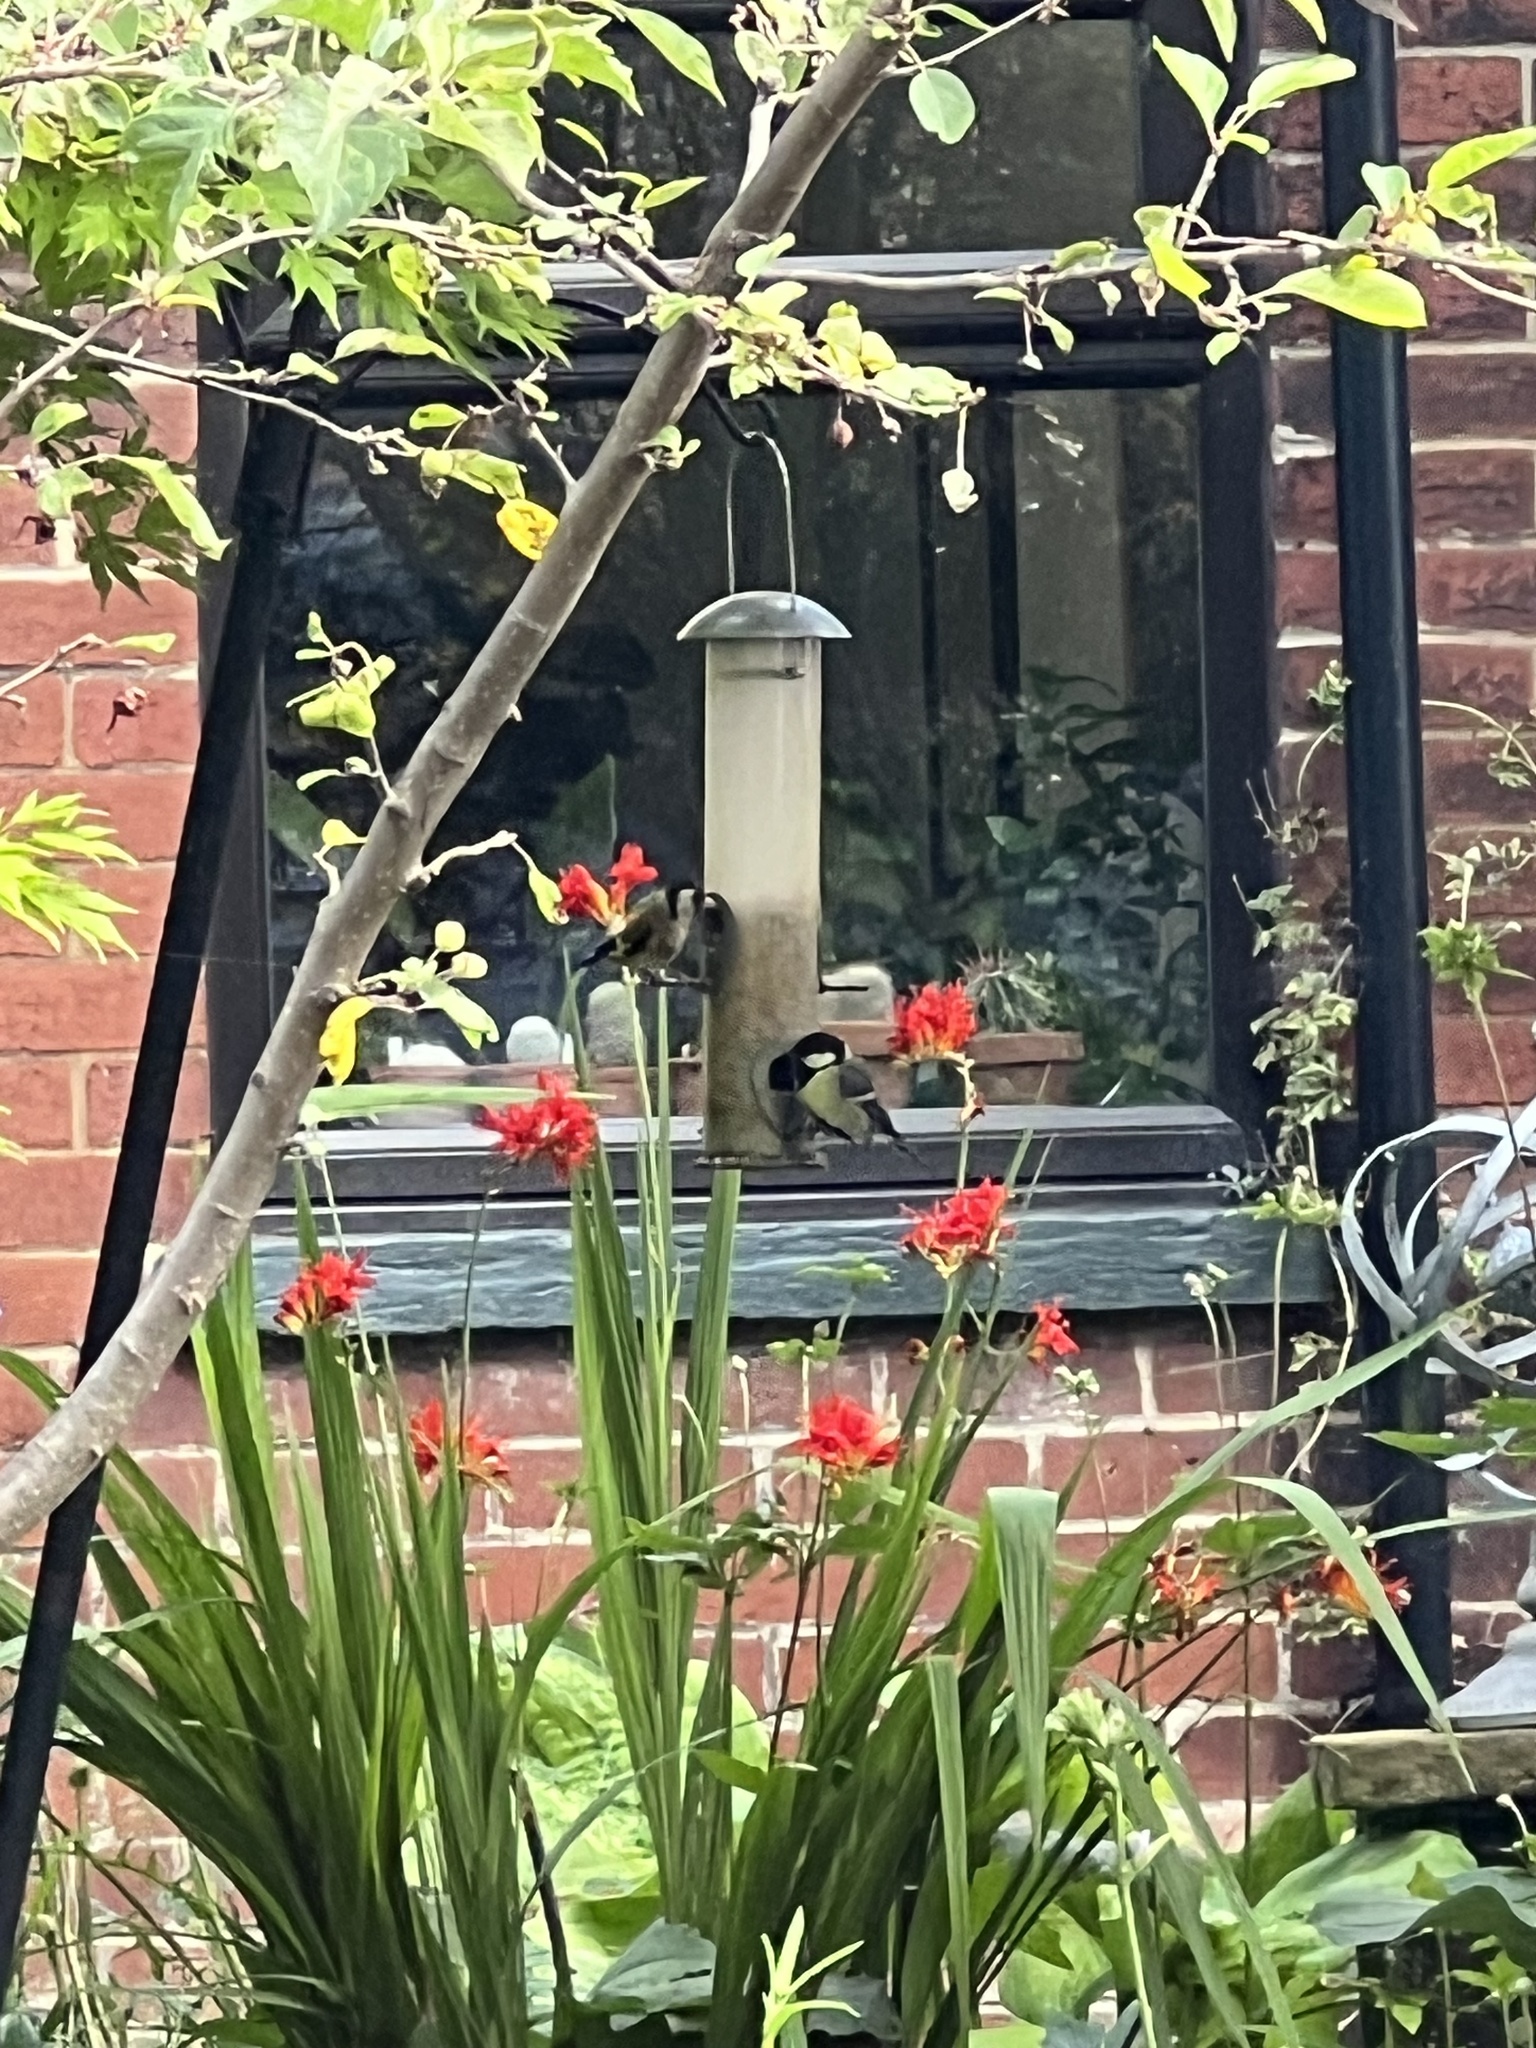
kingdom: Animalia
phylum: Chordata
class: Aves
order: Passeriformes
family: Paridae
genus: Parus
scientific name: Parus major
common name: Great tit
